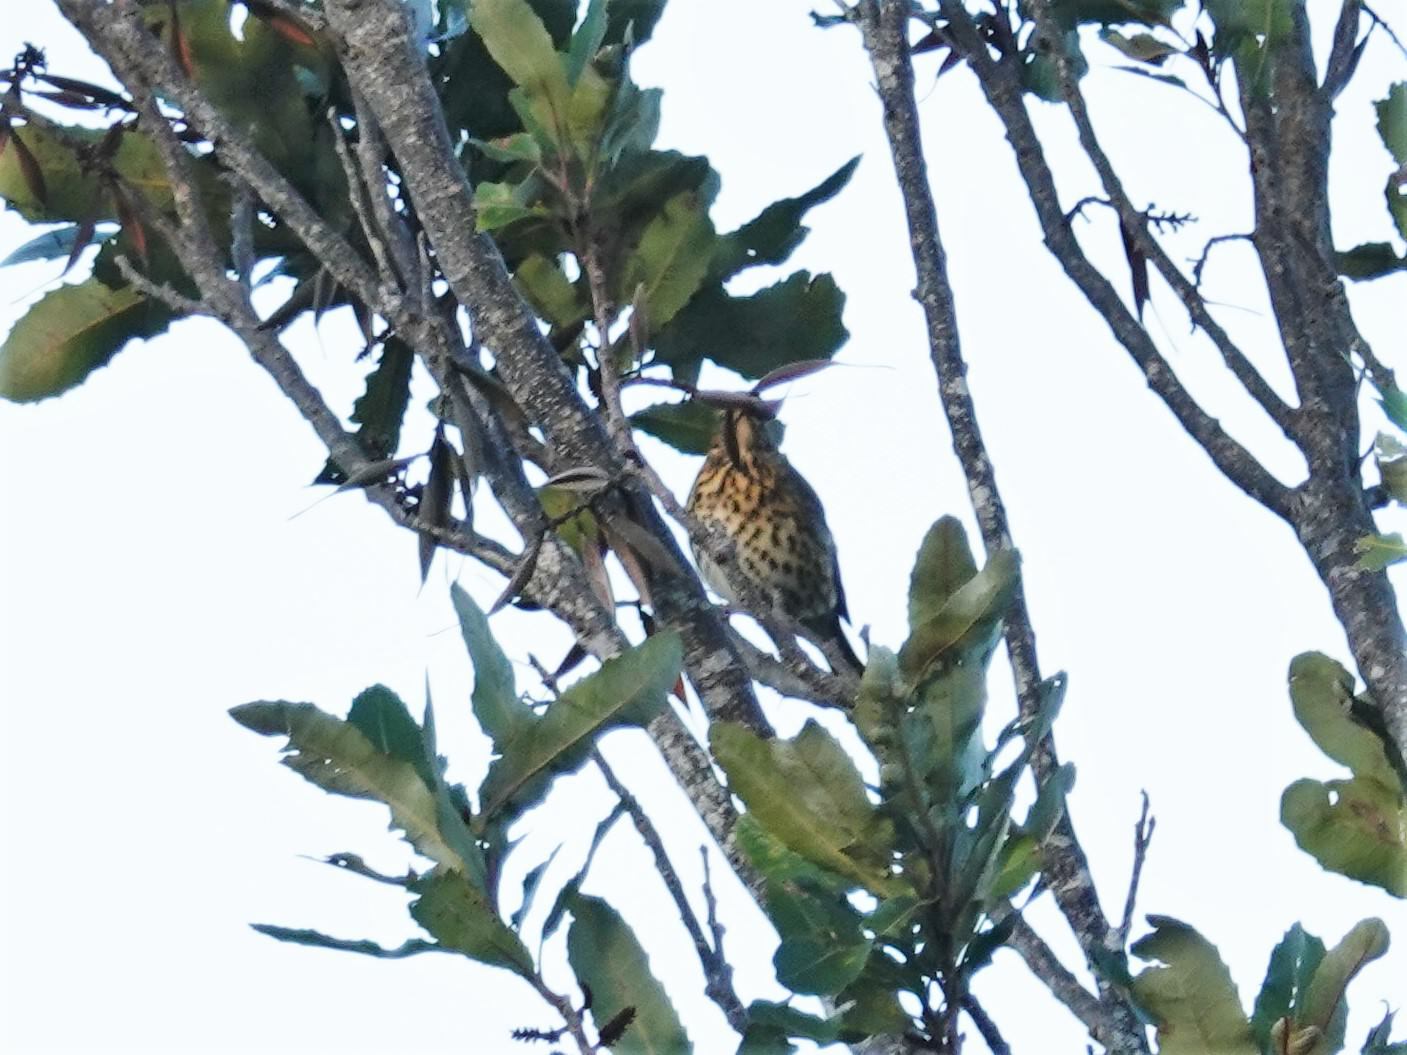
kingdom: Animalia
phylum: Chordata
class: Aves
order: Passeriformes
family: Turdidae
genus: Turdus
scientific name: Turdus philomelos
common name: Song thrush
